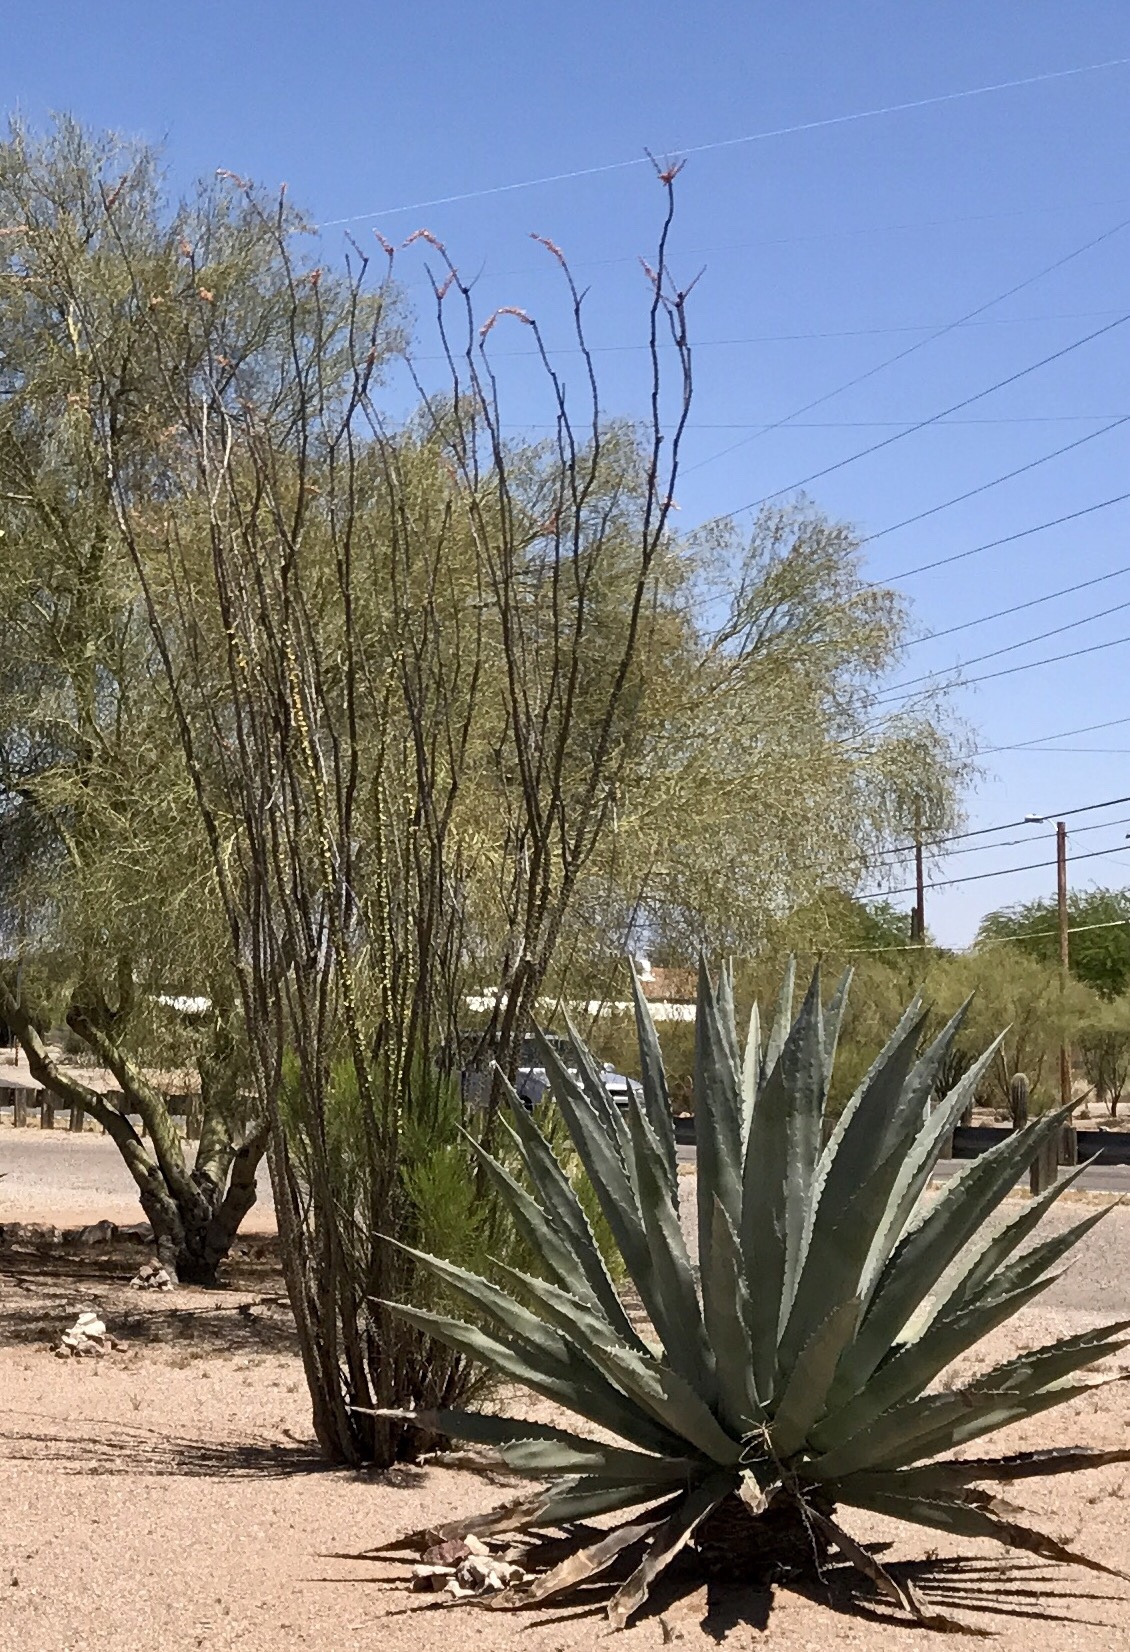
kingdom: Plantae
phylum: Tracheophyta
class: Magnoliopsida
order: Ericales
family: Fouquieriaceae
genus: Fouquieria
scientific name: Fouquieria splendens
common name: Vine-cactus
